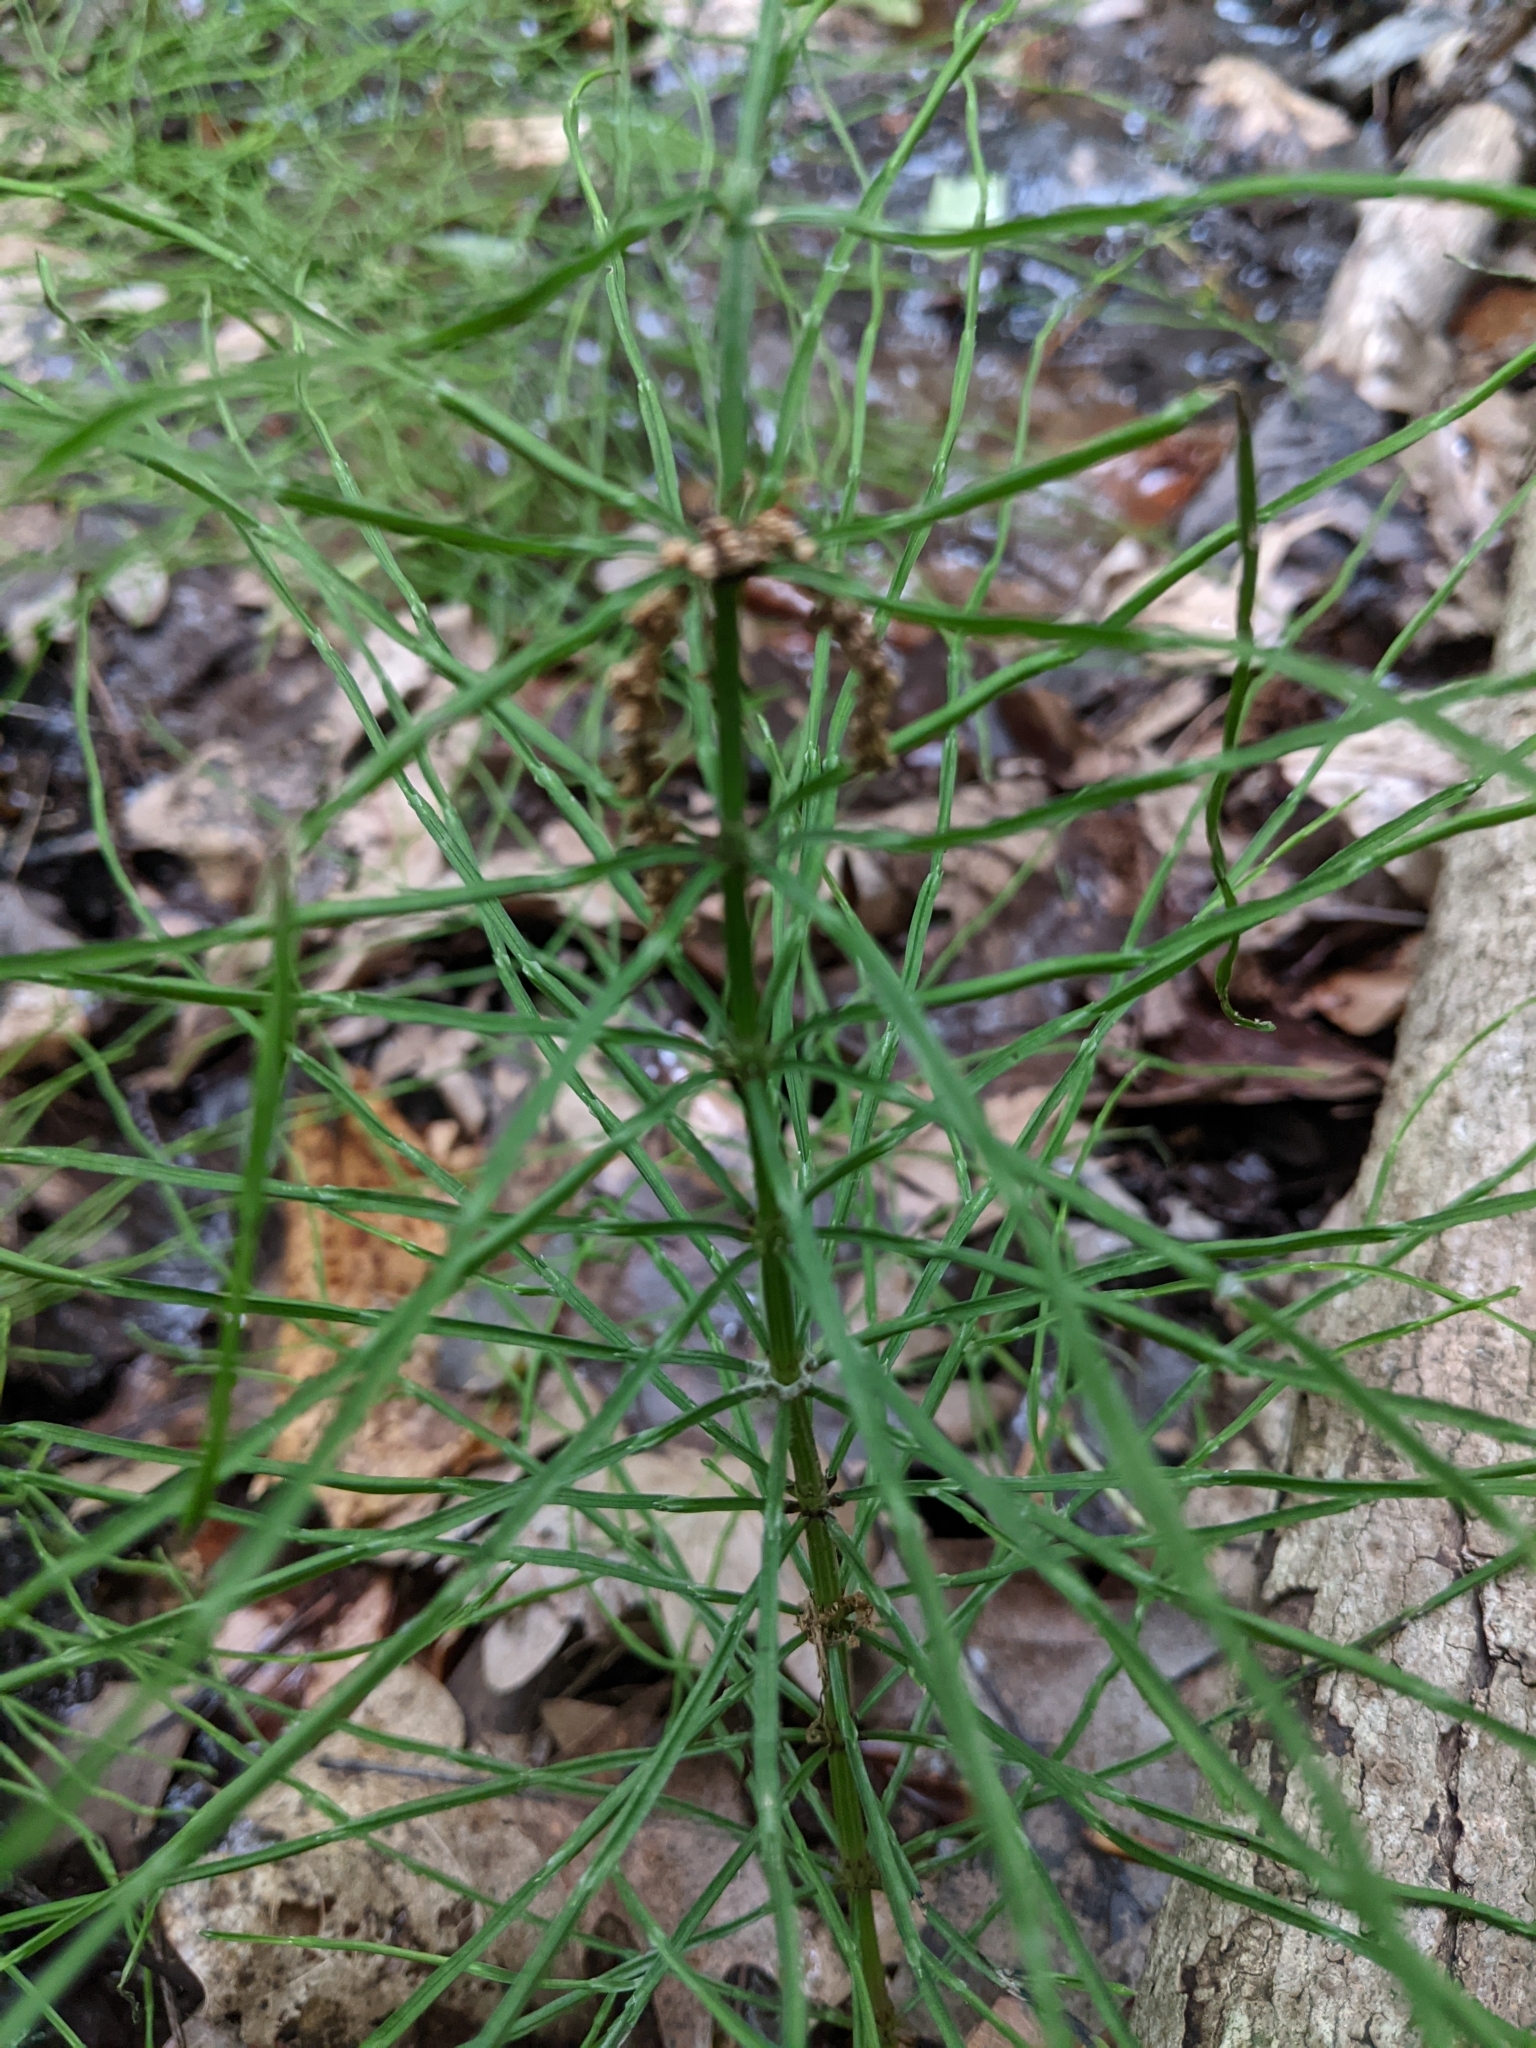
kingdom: Plantae
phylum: Tracheophyta
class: Polypodiopsida
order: Equisetales
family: Equisetaceae
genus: Equisetum
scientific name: Equisetum fluviatile
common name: Water horsetail
